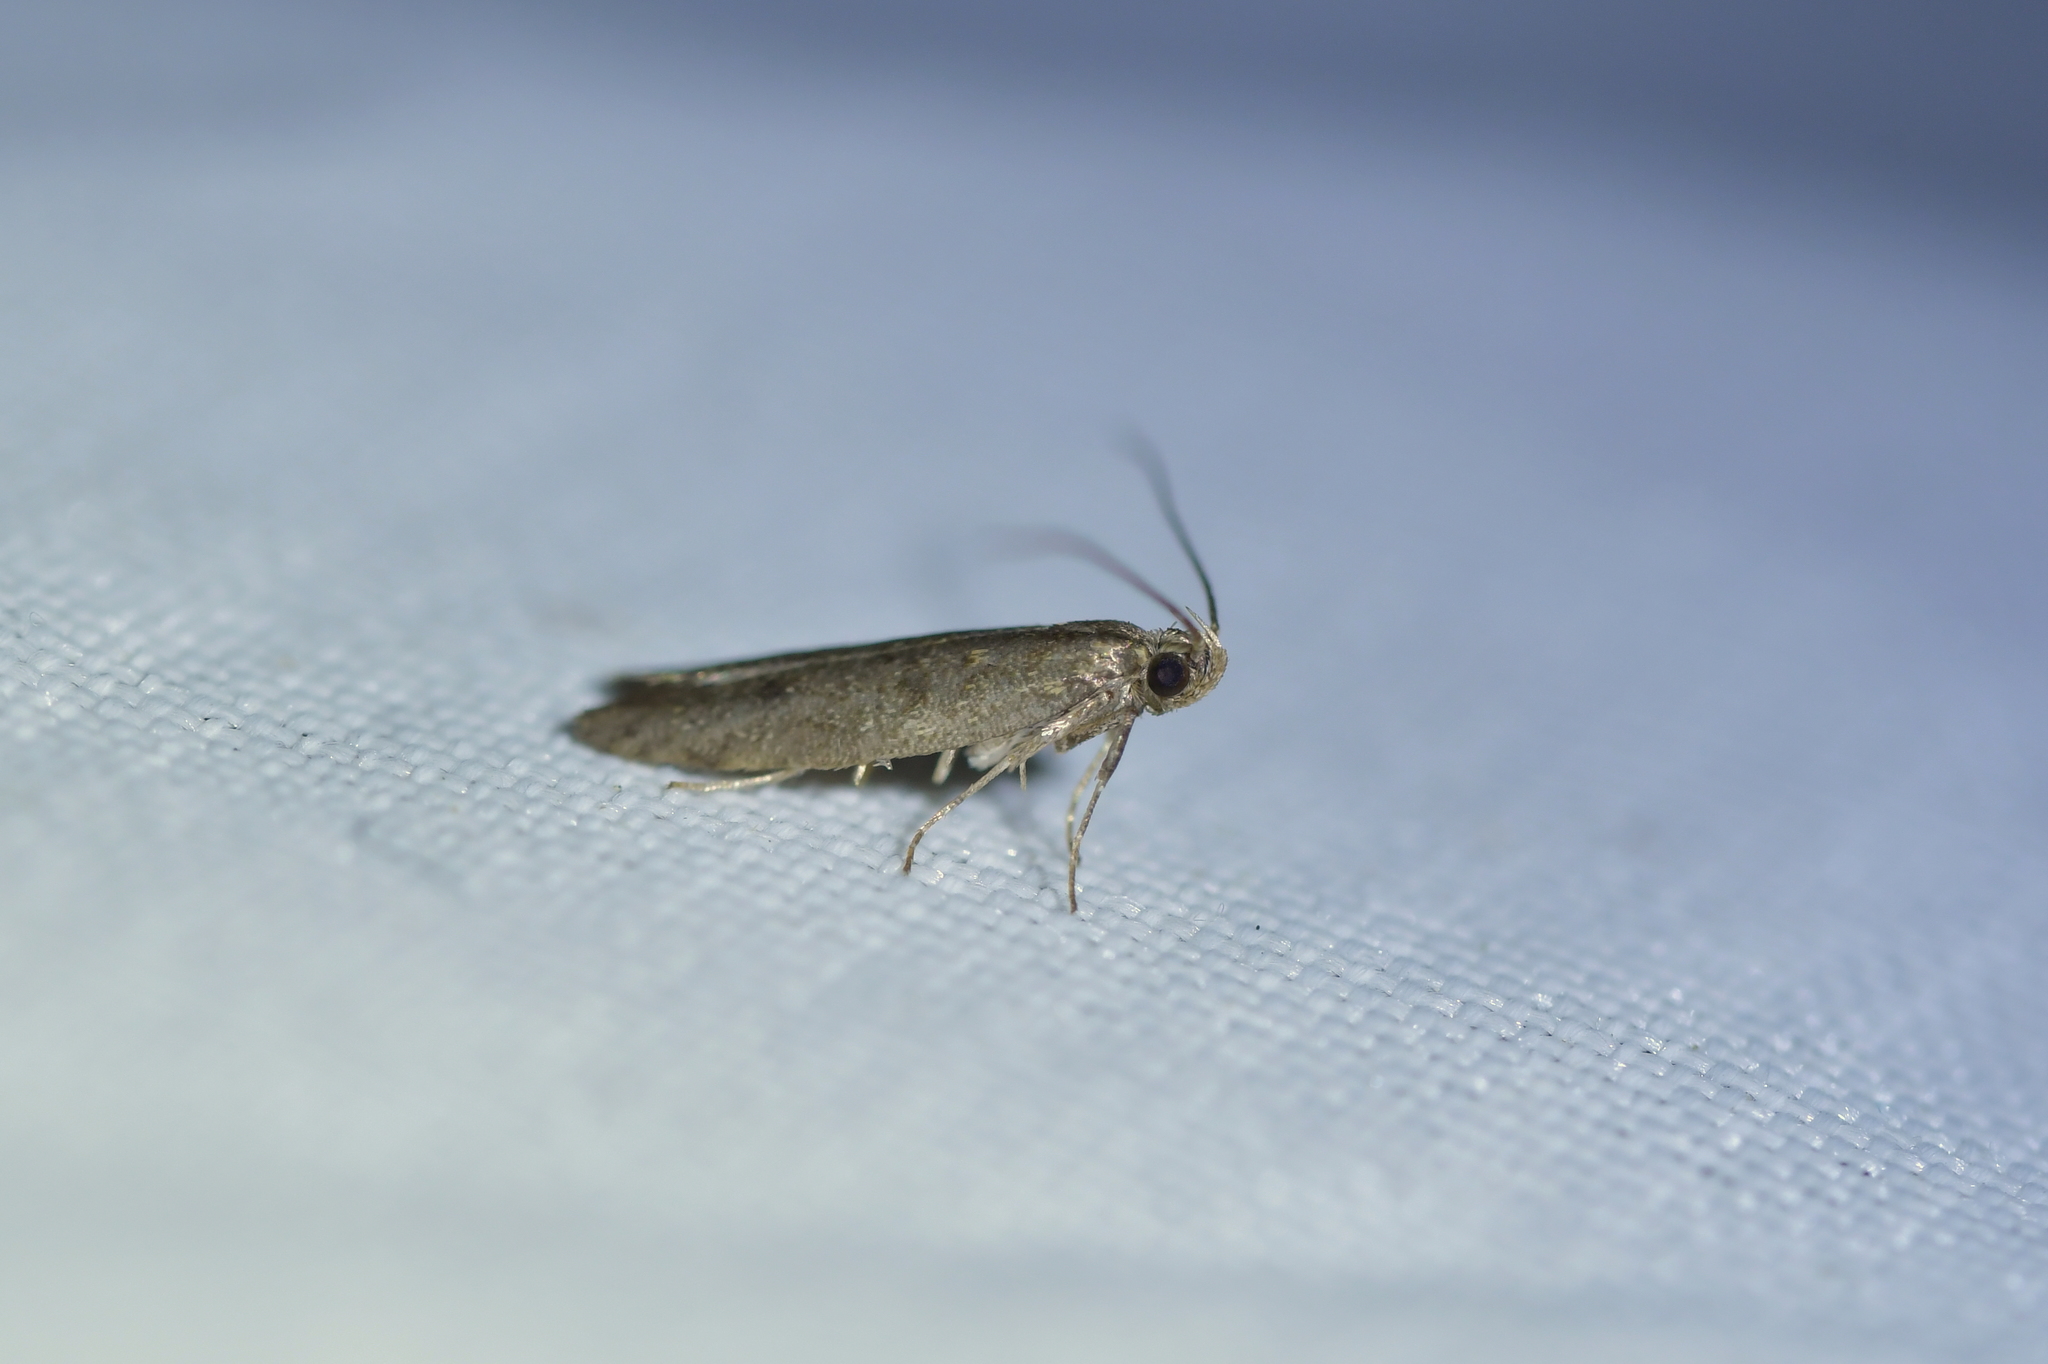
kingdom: Animalia
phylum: Arthropoda
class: Insecta
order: Lepidoptera
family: Oecophoridae
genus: Gymnobathra
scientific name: Gymnobathra tholodella
